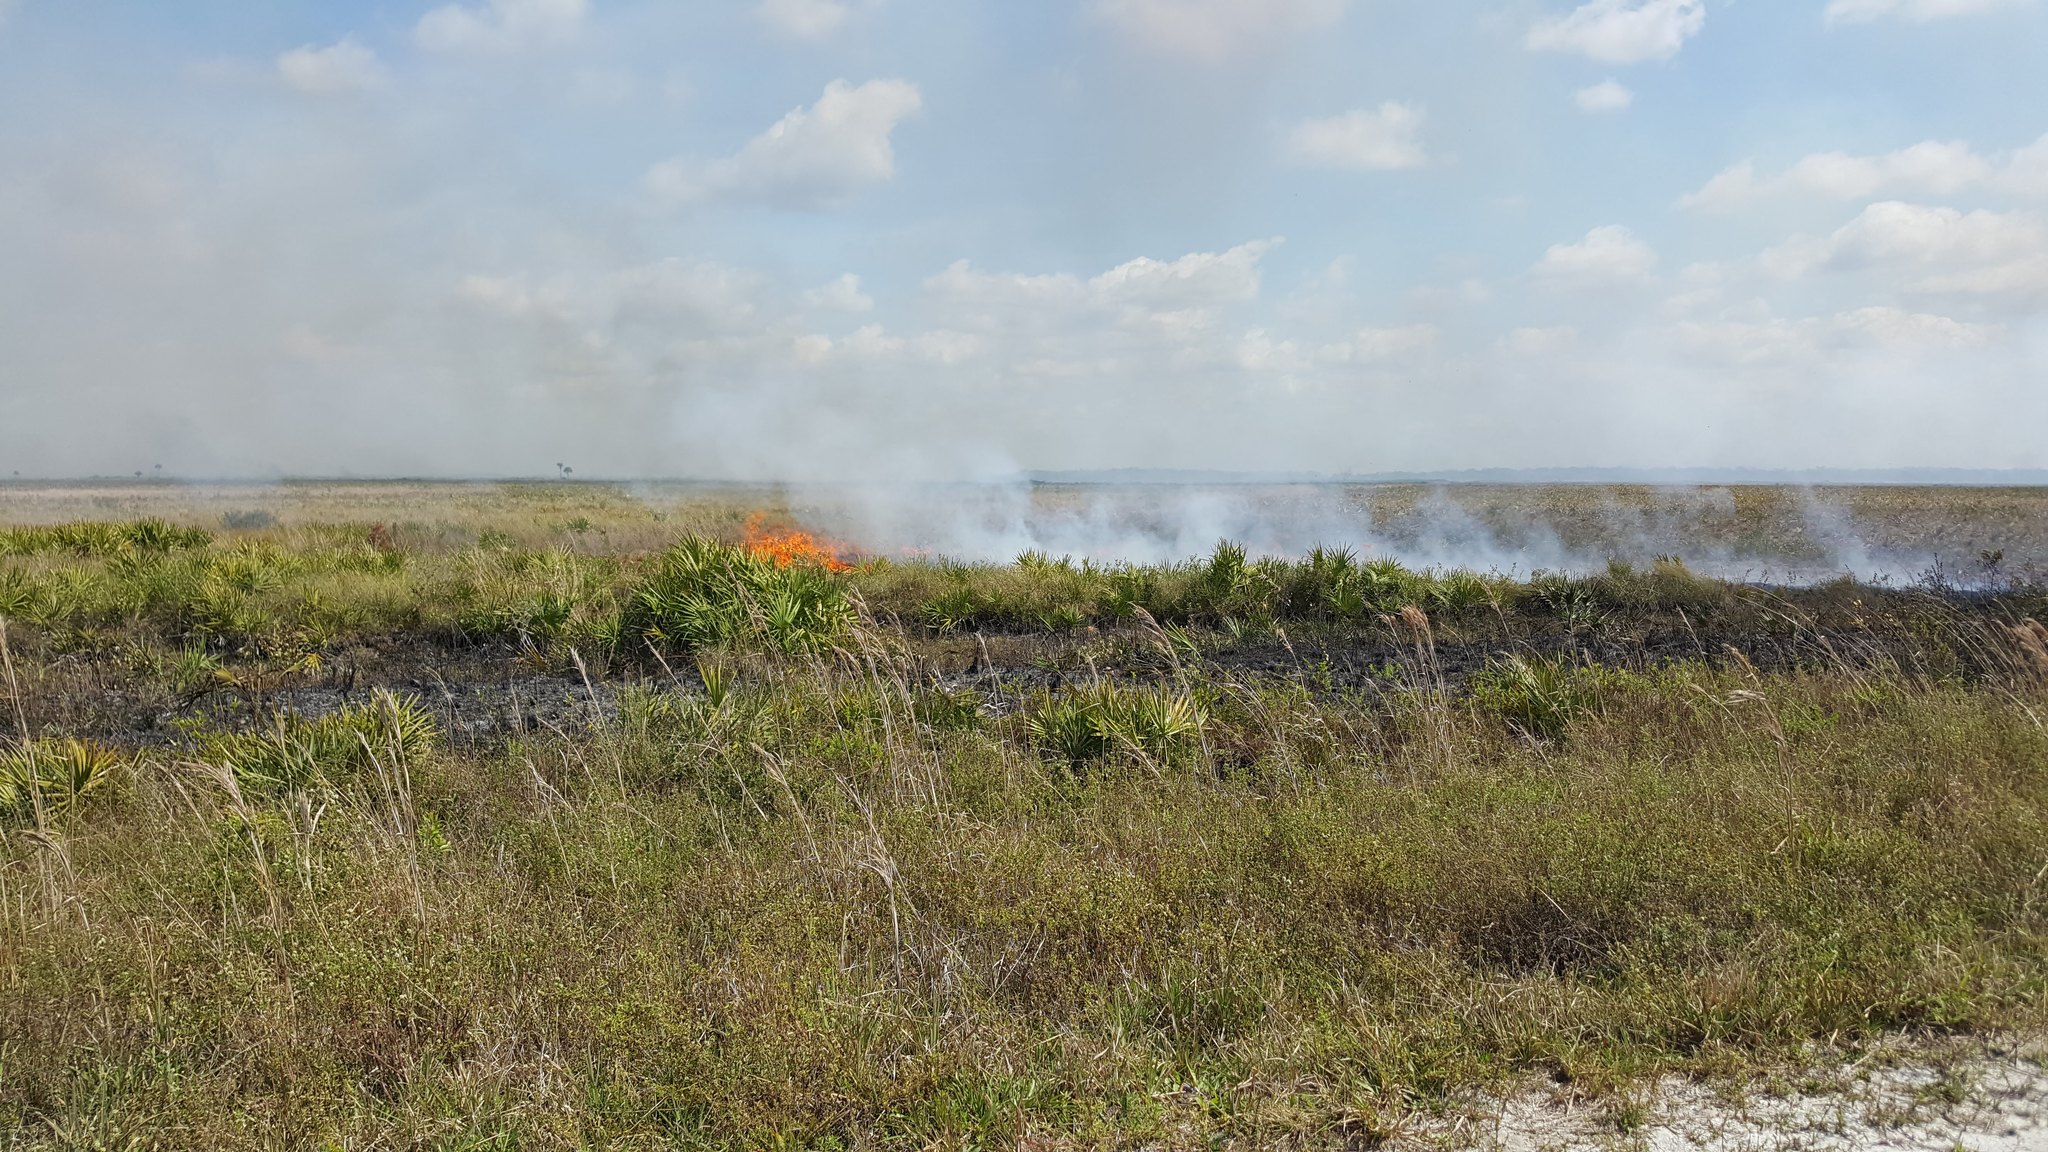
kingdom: Plantae
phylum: Tracheophyta
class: Liliopsida
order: Arecales
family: Arecaceae
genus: Serenoa
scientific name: Serenoa repens
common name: Saw-palmetto
